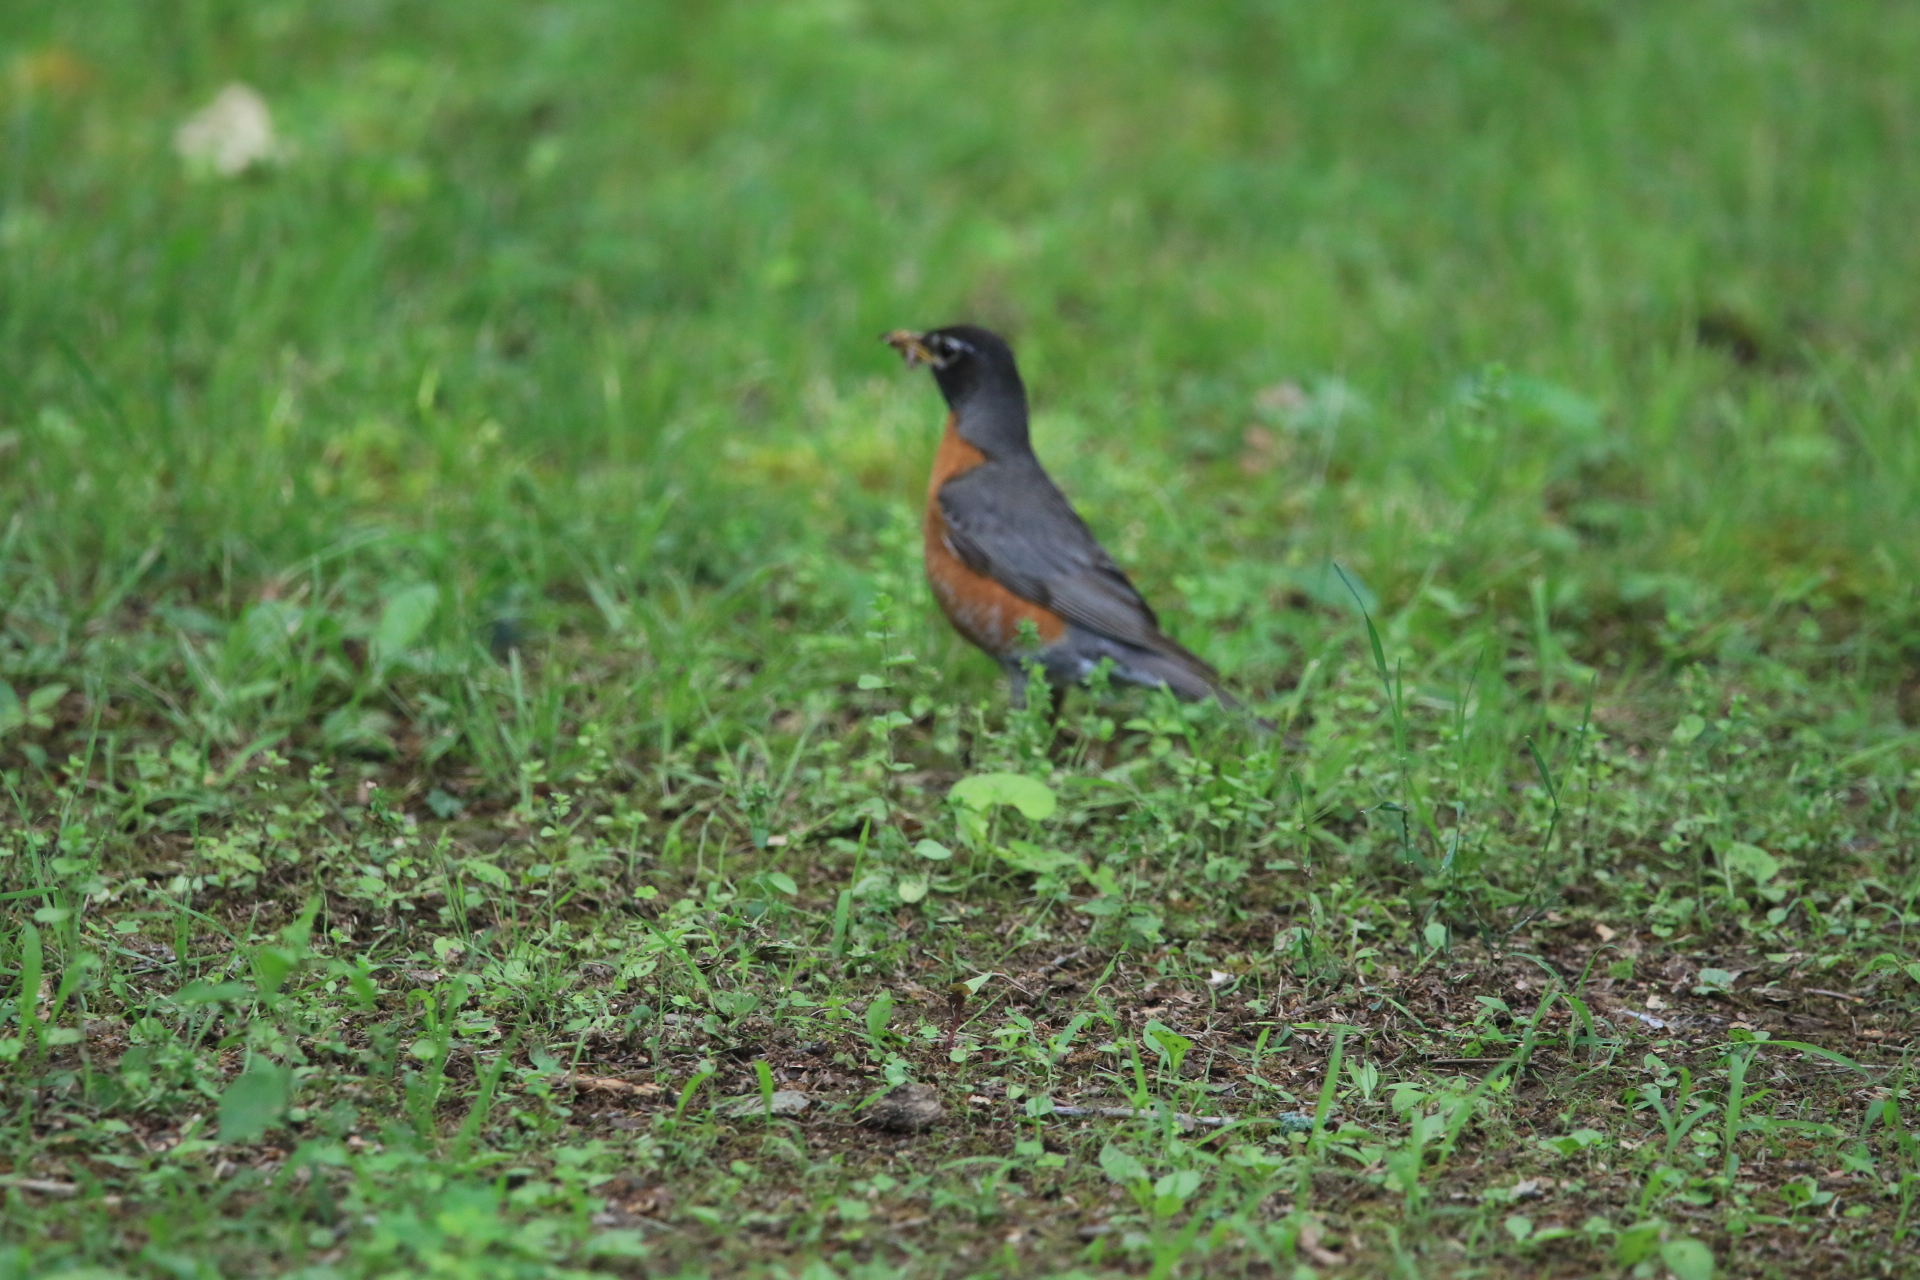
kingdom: Animalia
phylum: Chordata
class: Aves
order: Passeriformes
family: Turdidae
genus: Turdus
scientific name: Turdus migratorius
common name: American robin
